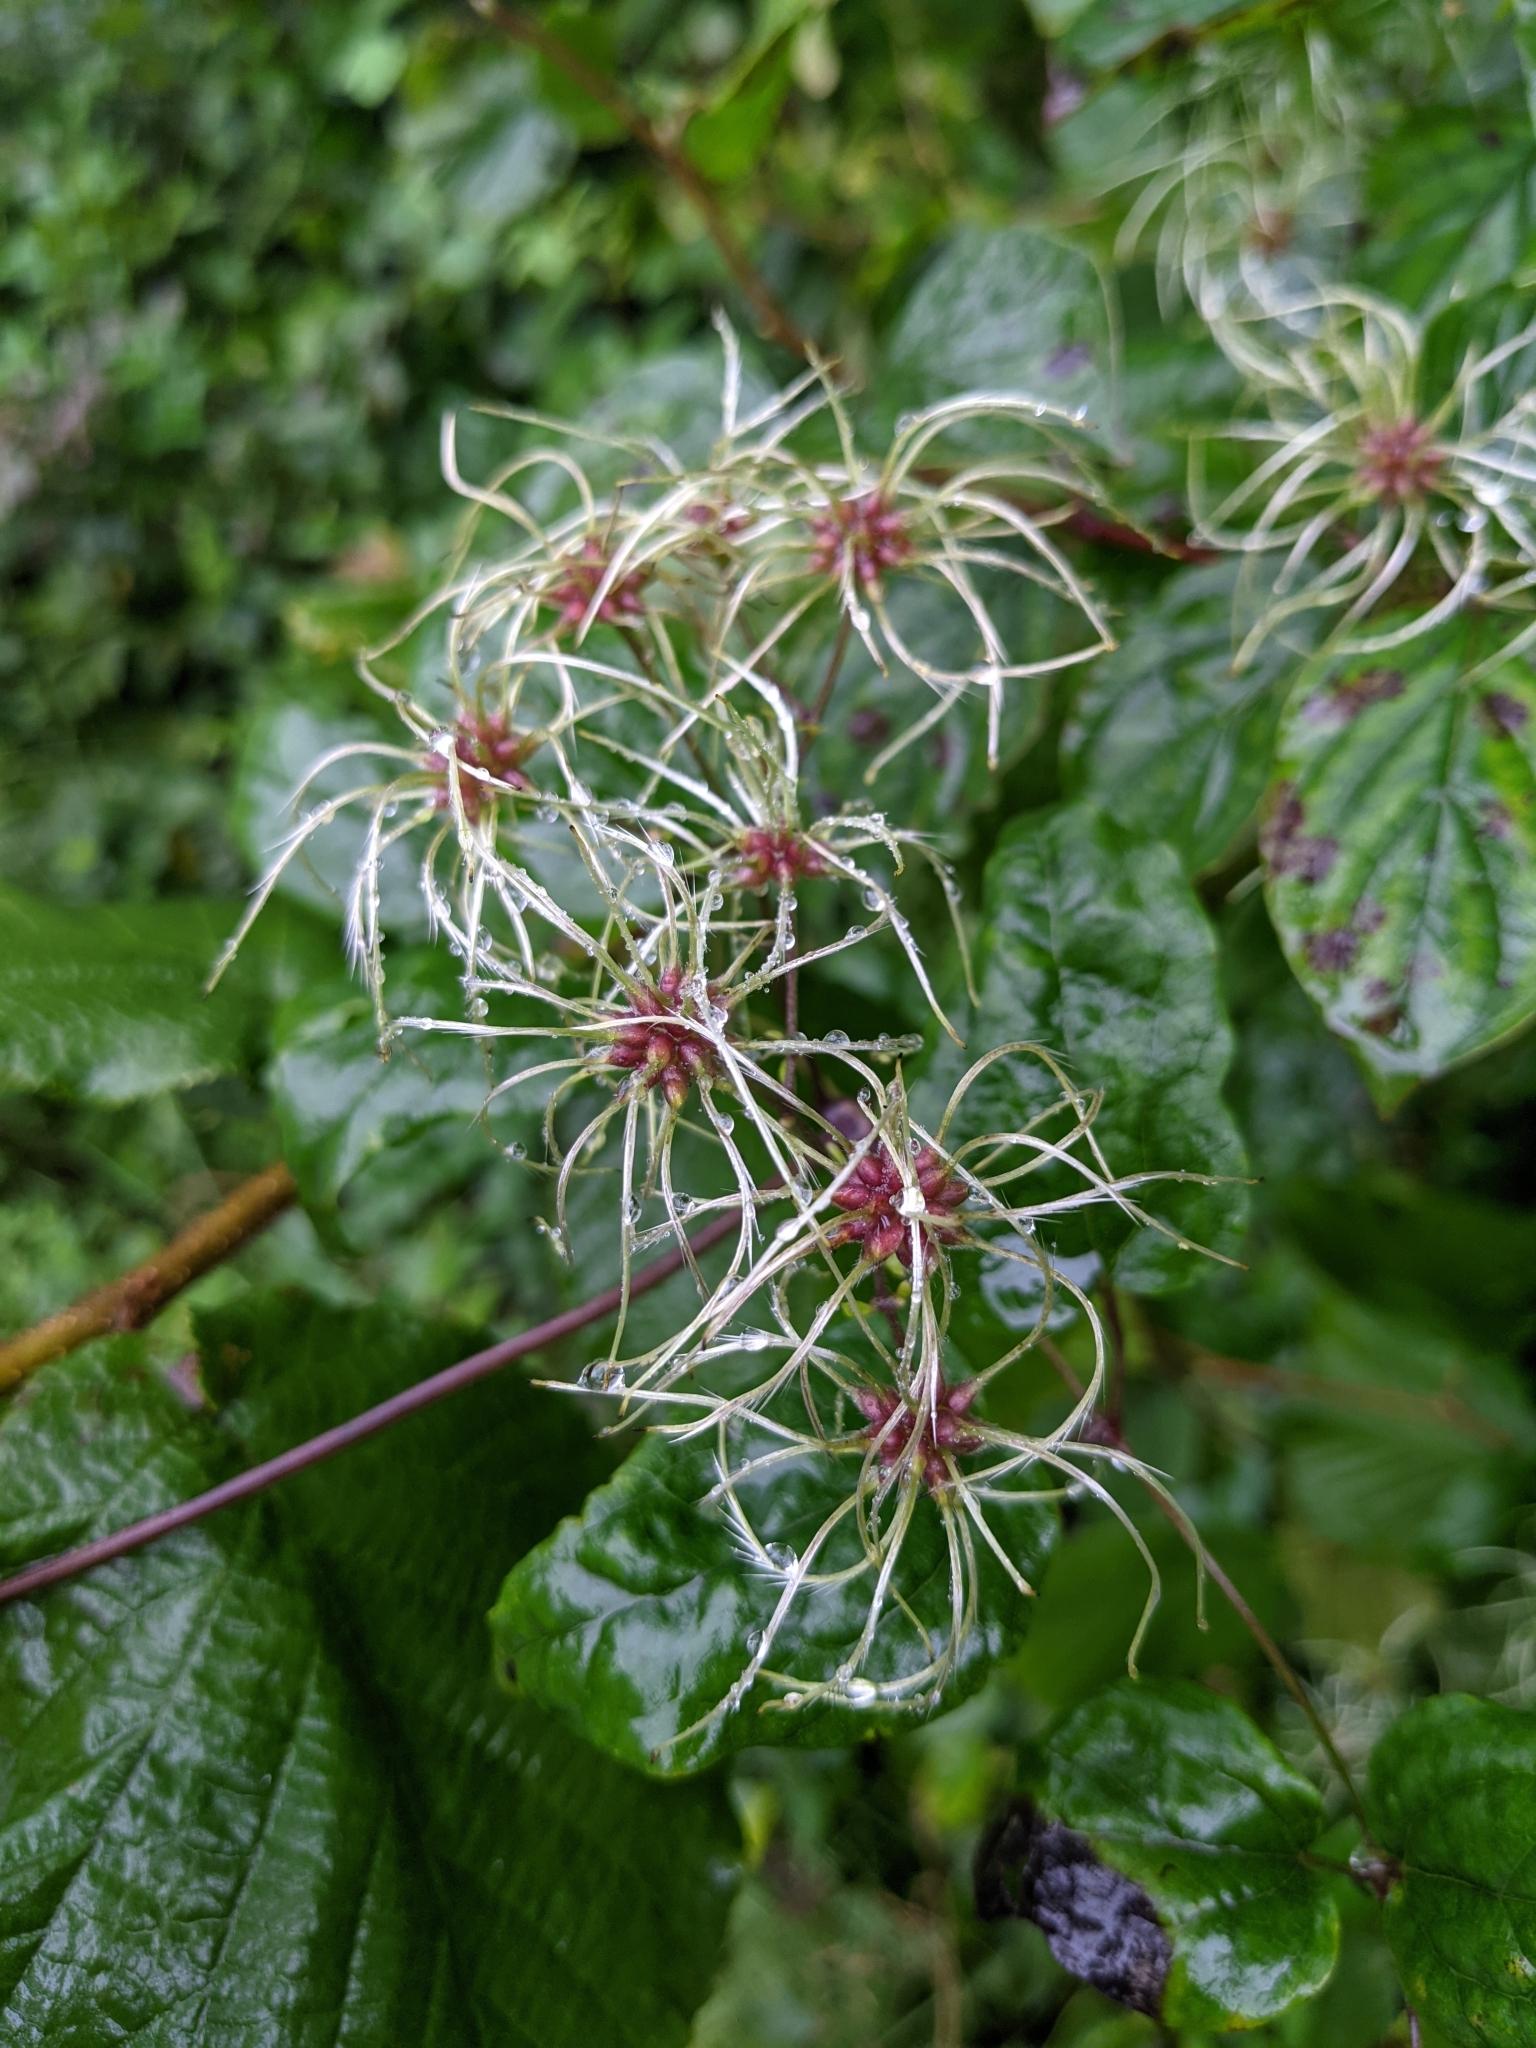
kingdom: Plantae
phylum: Tracheophyta
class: Magnoliopsida
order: Ranunculales
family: Ranunculaceae
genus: Clematis
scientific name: Clematis vitalba
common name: Evergreen clematis
